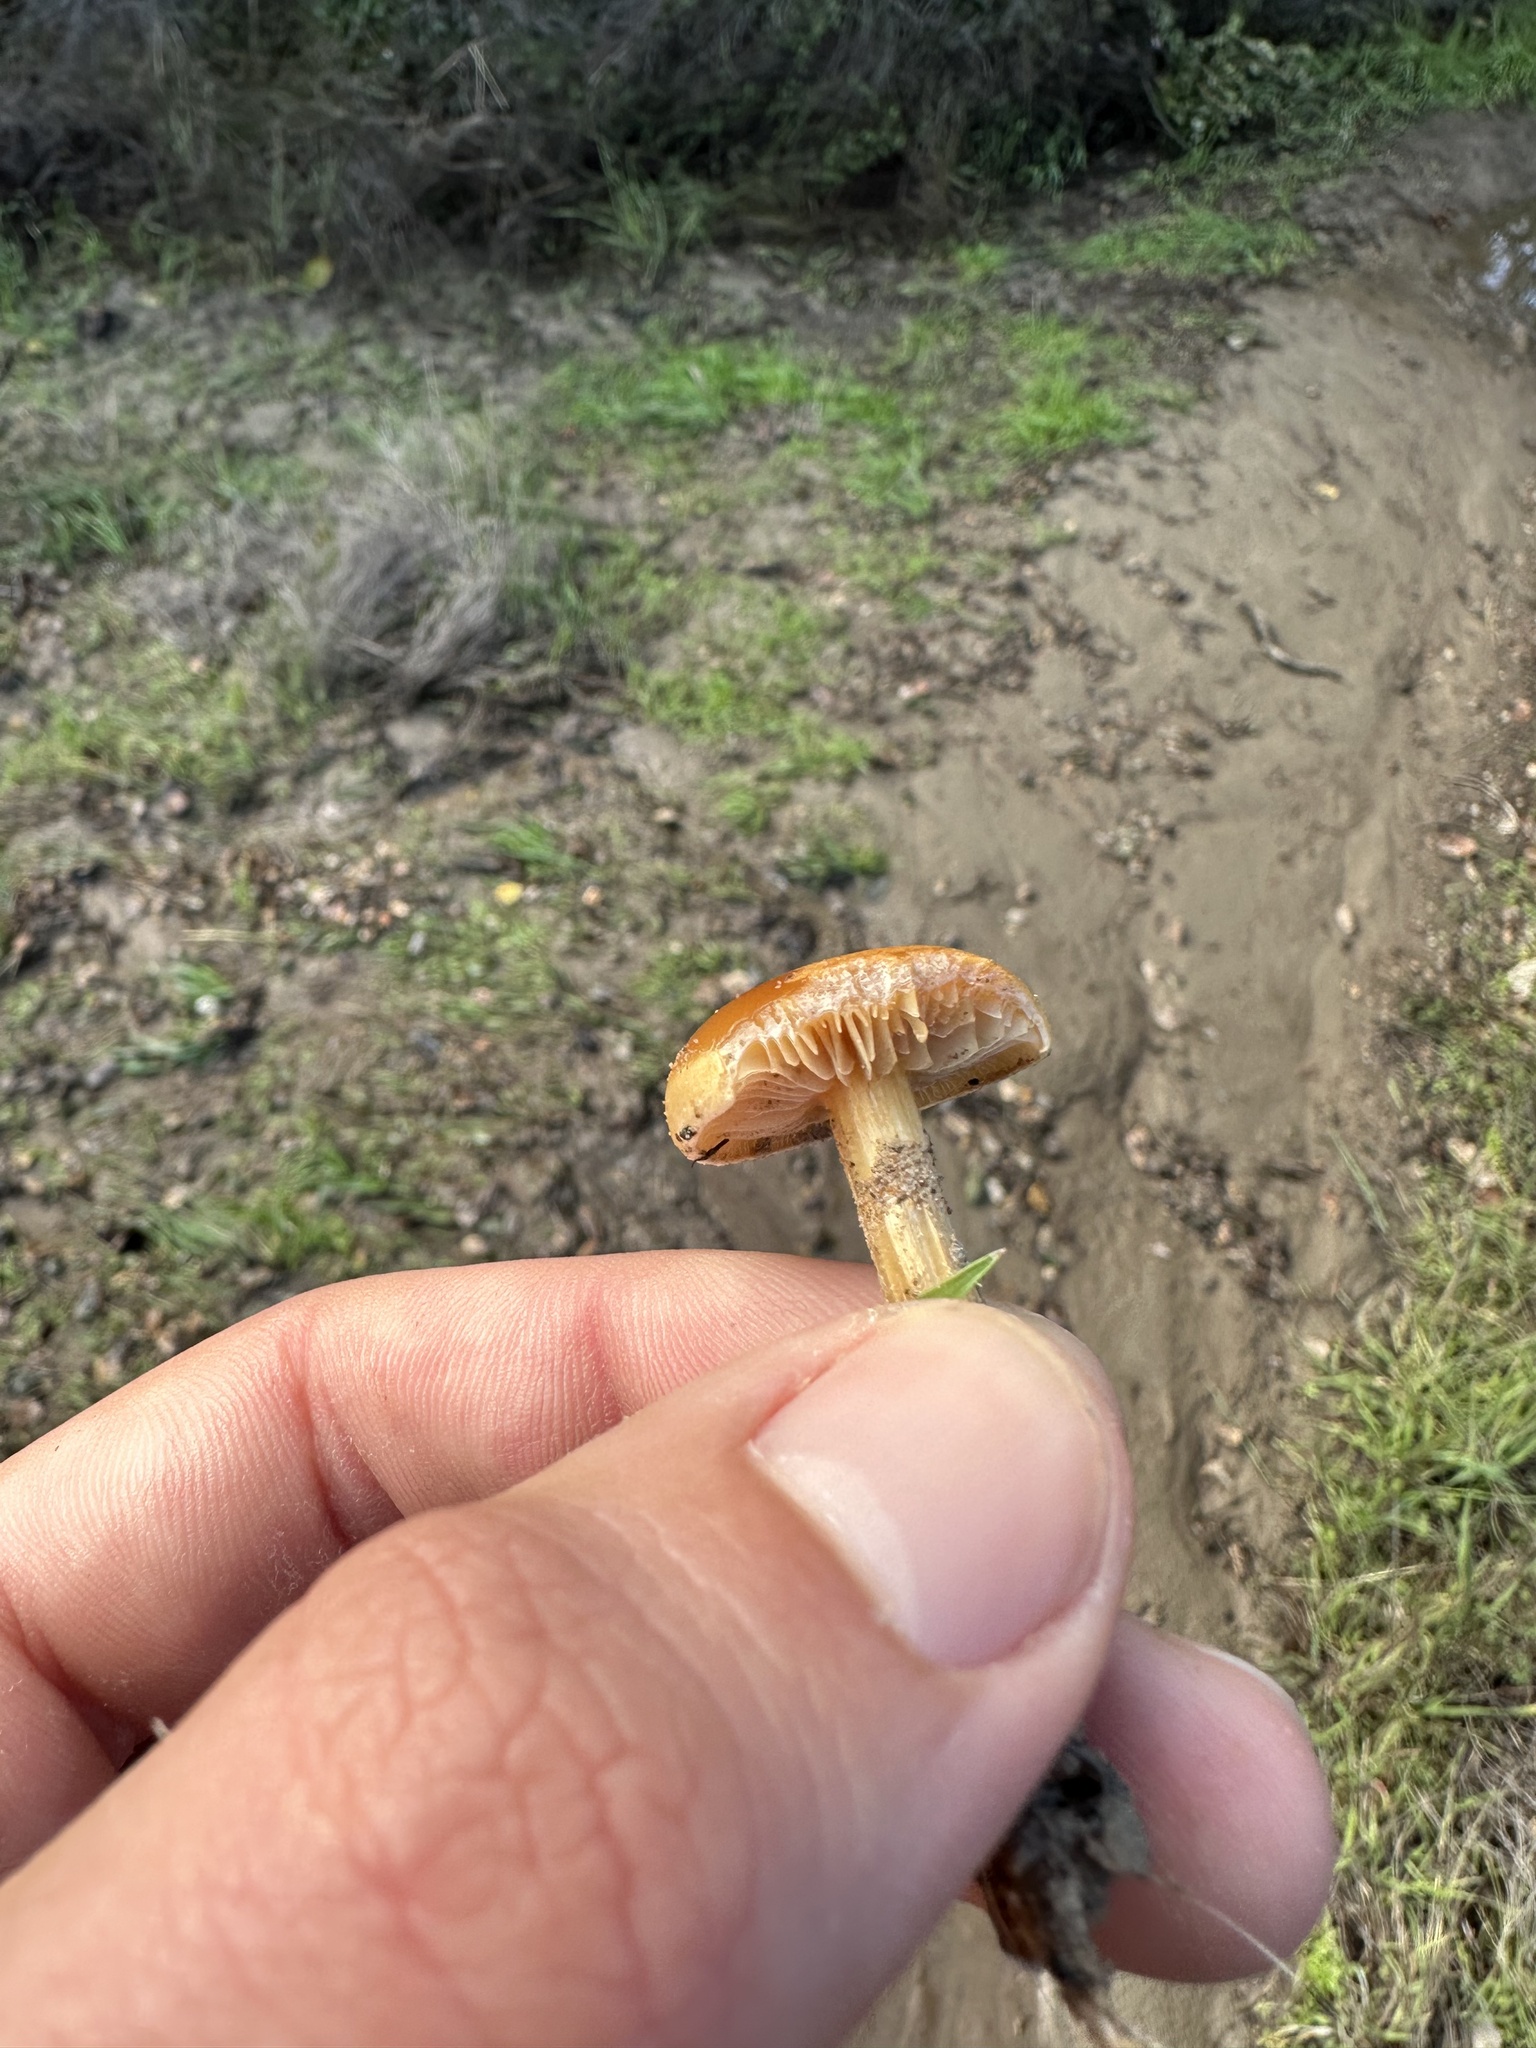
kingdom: Fungi
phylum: Basidiomycota
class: Agaricomycetes
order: Agaricales
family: Strophariaceae
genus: Agrocybe
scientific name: Agrocybe pediades
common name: Common fieldcap
